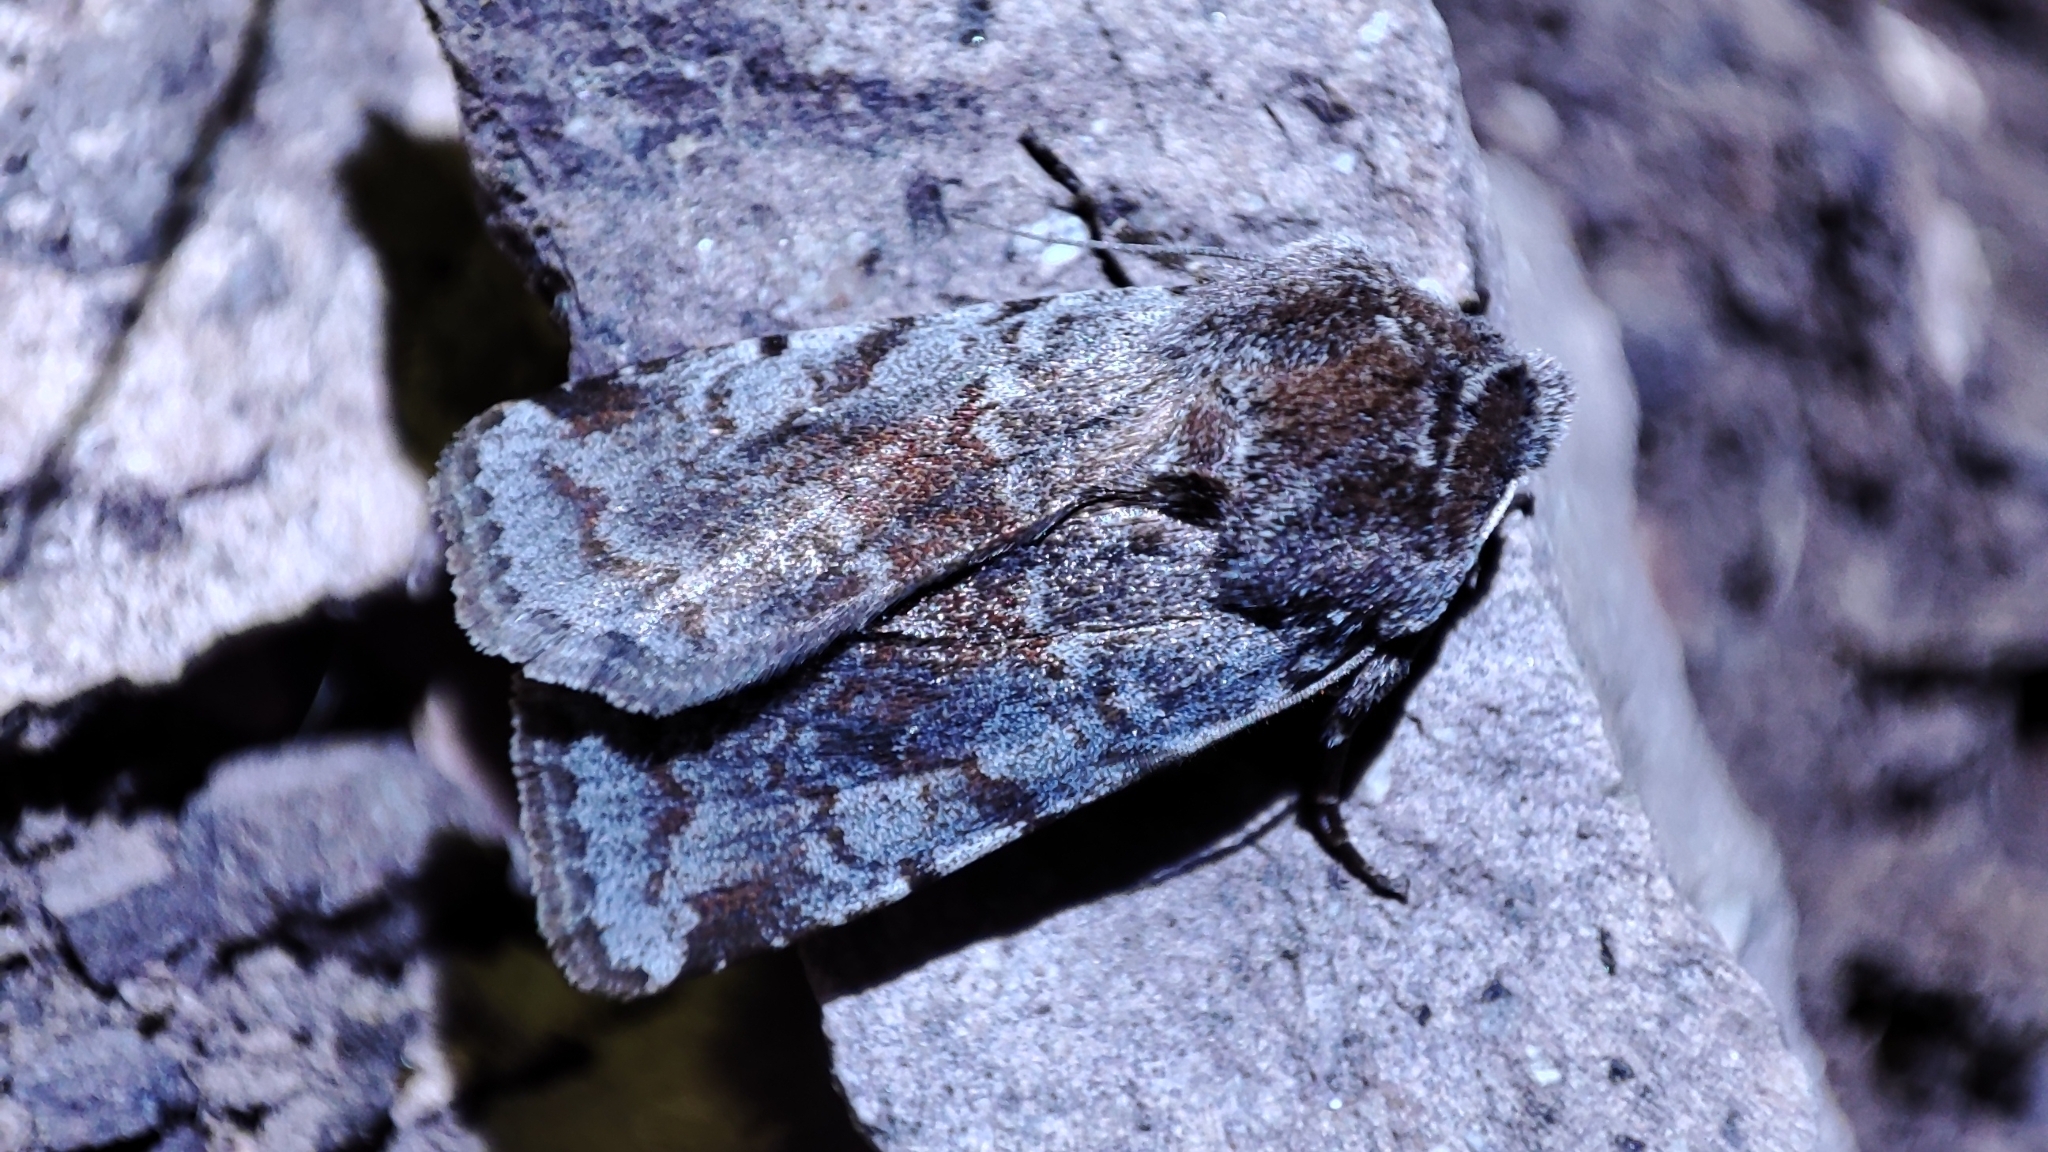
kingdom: Animalia
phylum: Arthropoda
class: Insecta
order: Lepidoptera
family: Noctuidae
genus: Cerastis
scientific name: Cerastis rubricosa
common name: Red chestnut
